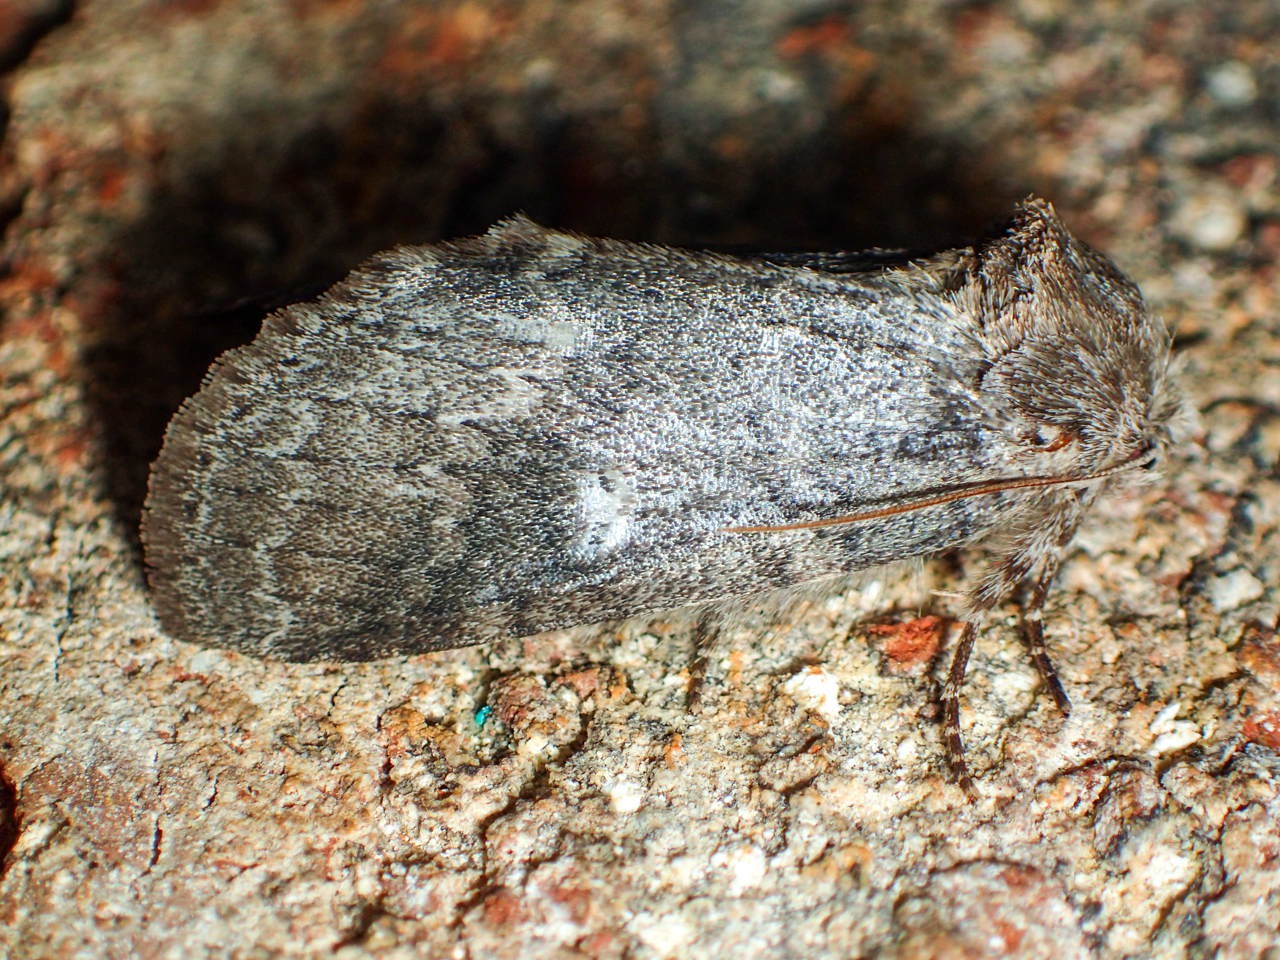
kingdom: Animalia
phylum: Arthropoda
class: Insecta
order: Lepidoptera
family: Notodontidae
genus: Lochmaeus
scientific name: Lochmaeus manteo
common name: Variable oakleaf caterpillar moth
